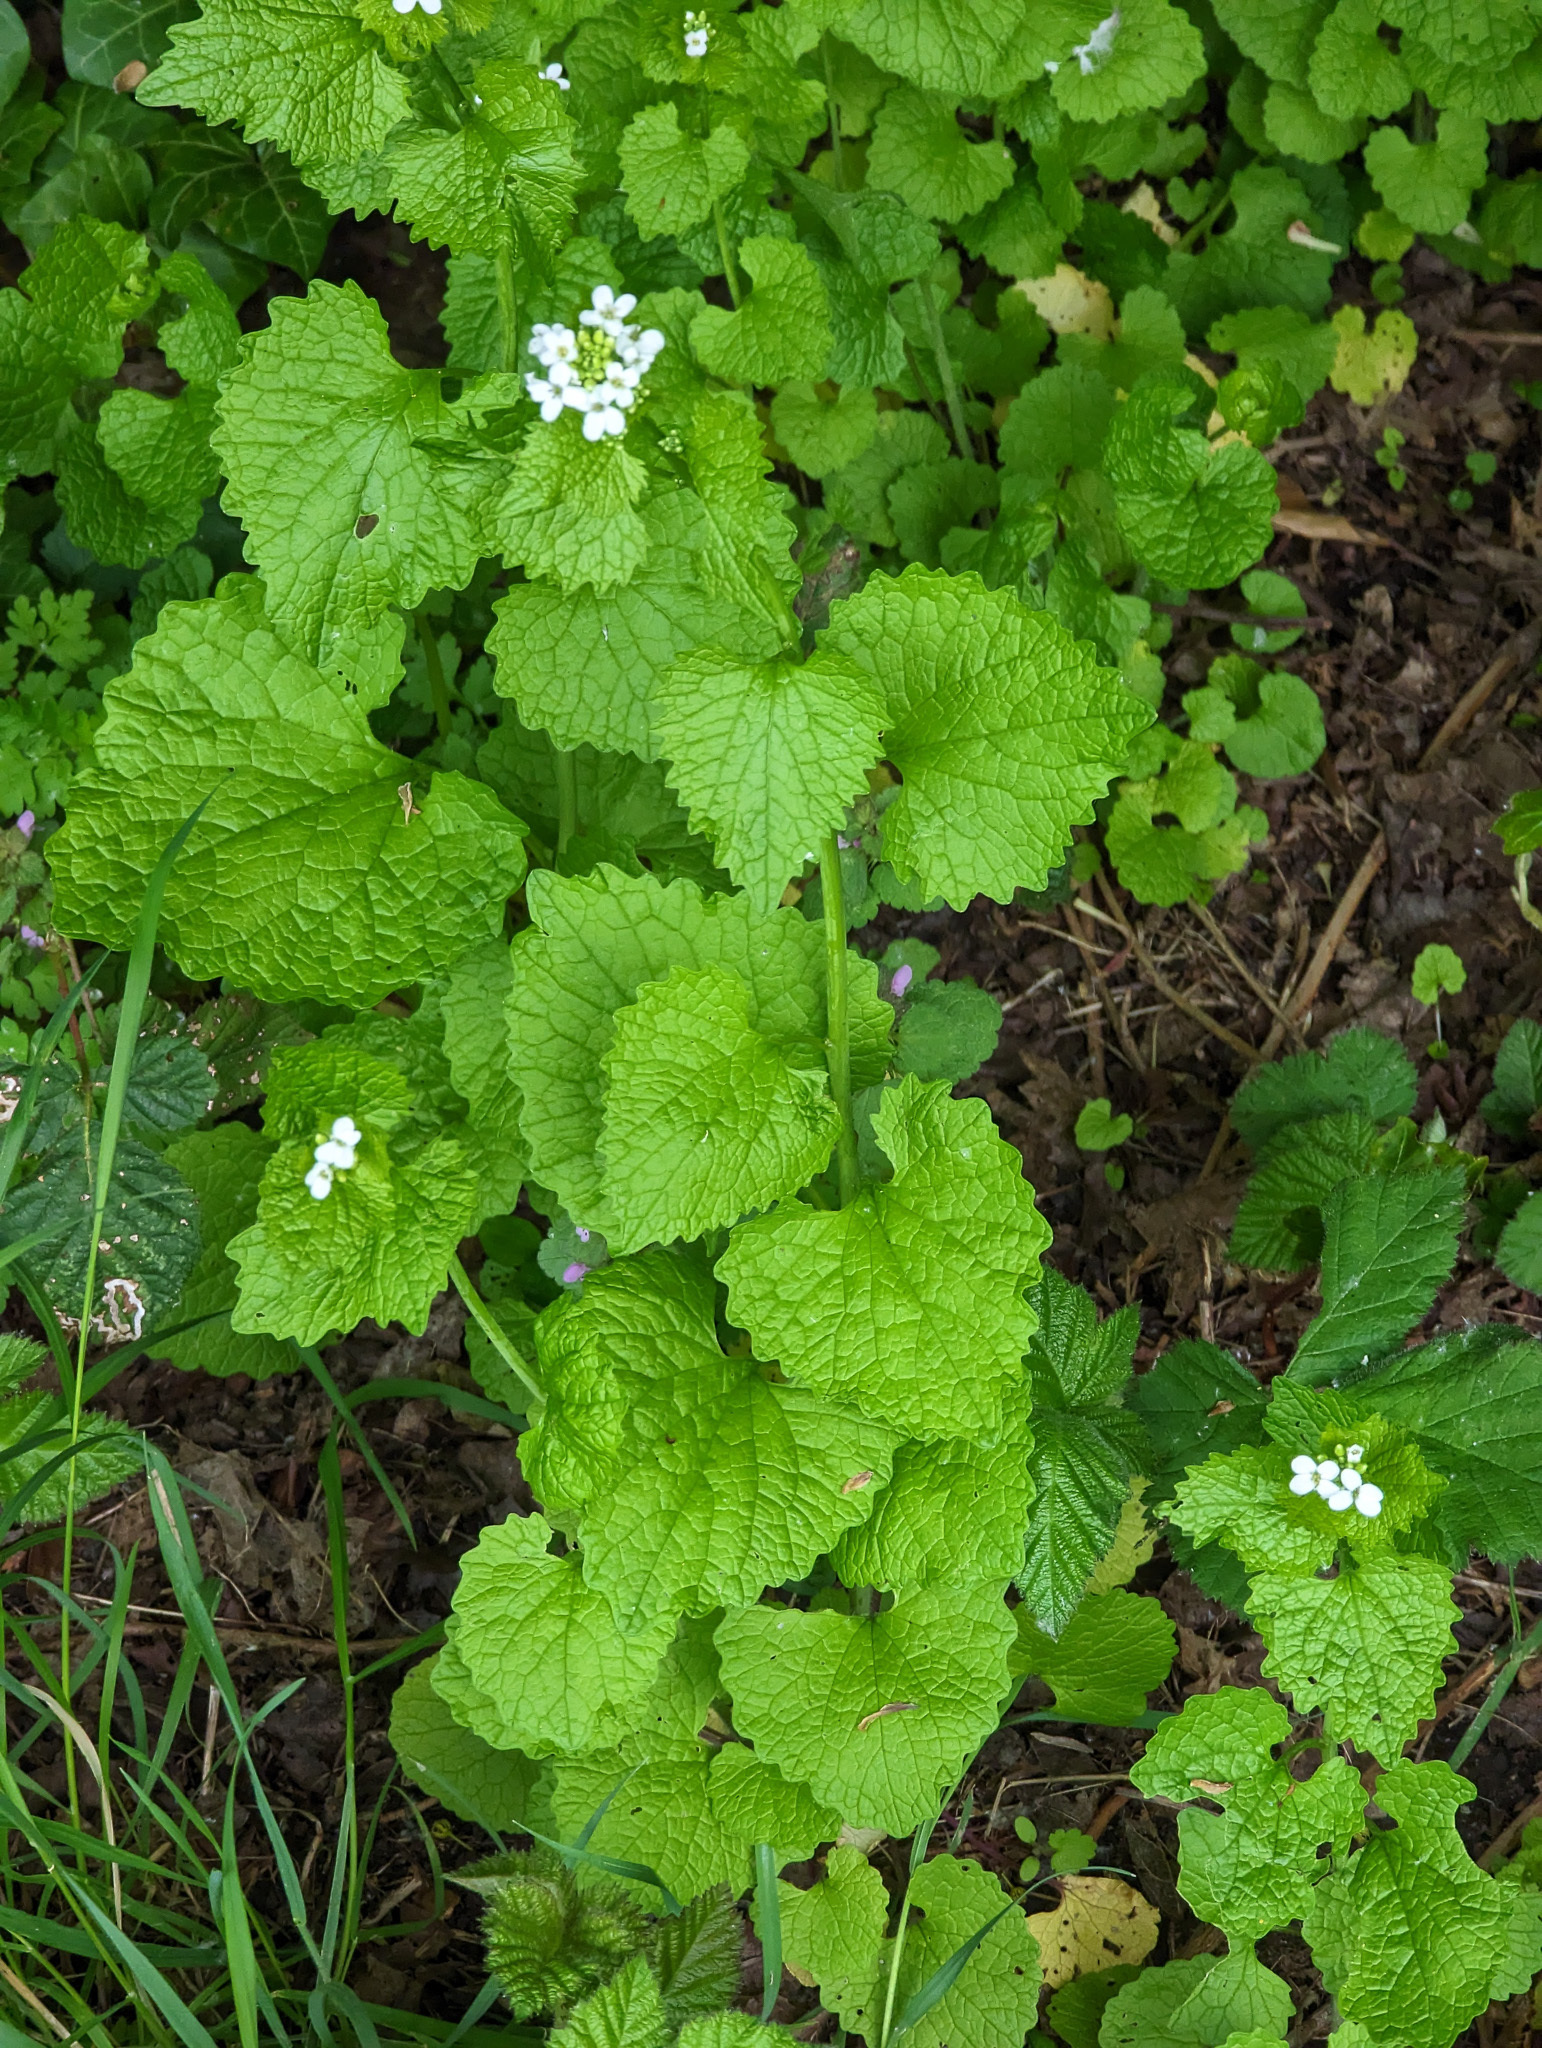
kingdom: Plantae
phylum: Tracheophyta
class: Magnoliopsida
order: Brassicales
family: Brassicaceae
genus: Alliaria
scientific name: Alliaria petiolata
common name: Garlic mustard
